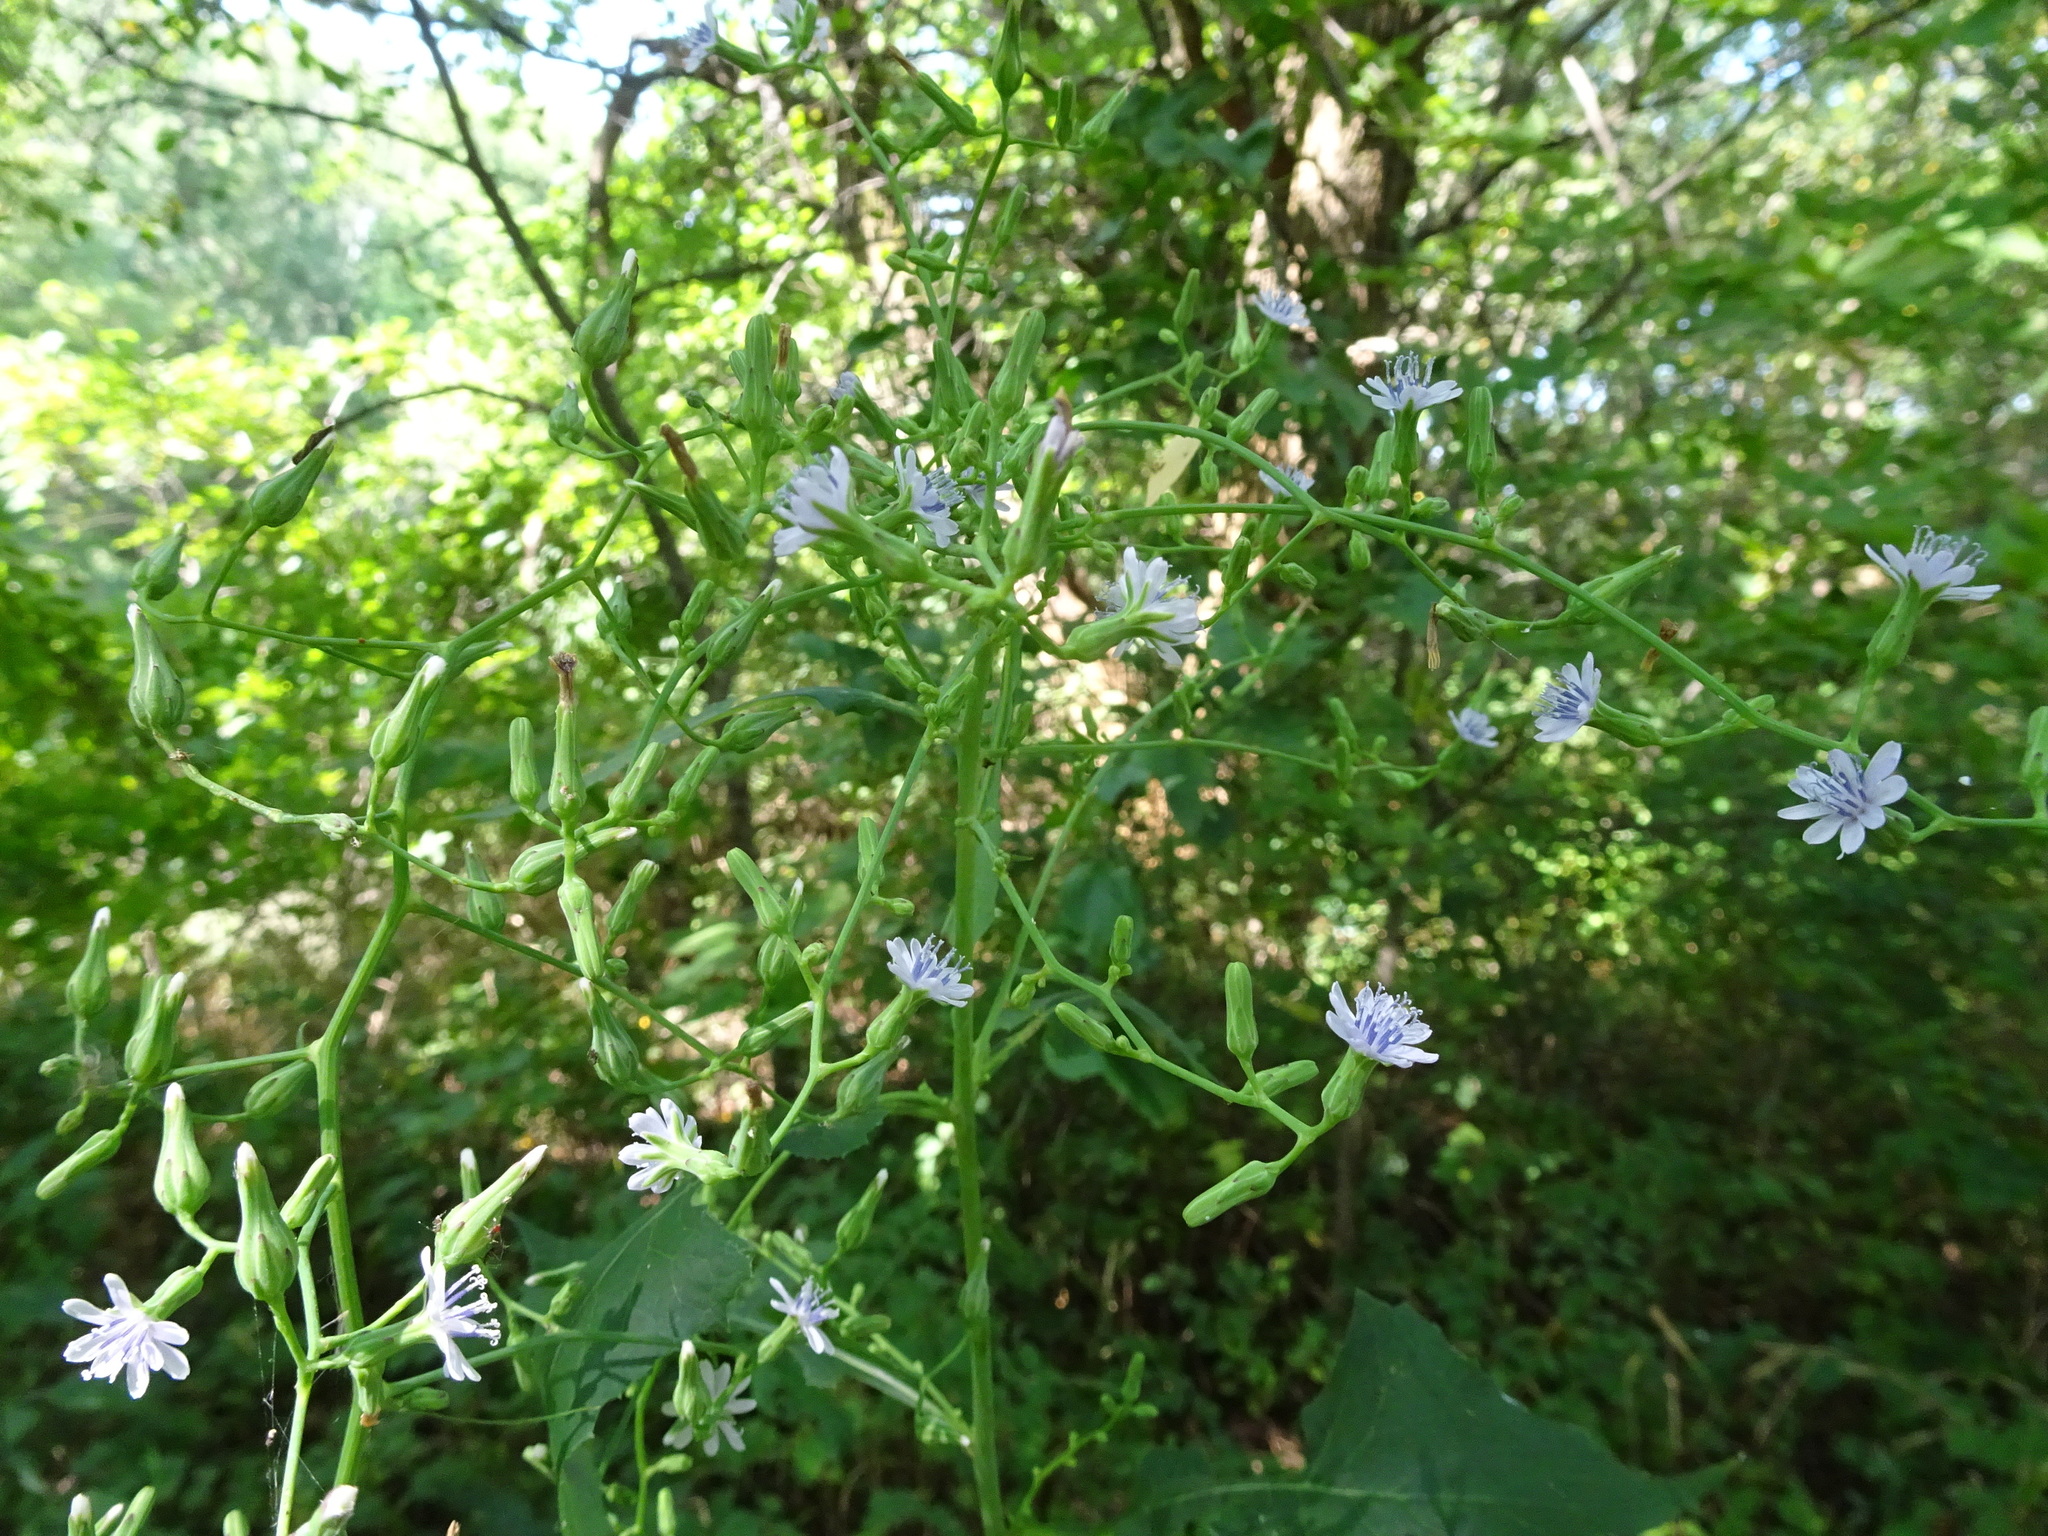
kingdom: Plantae
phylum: Tracheophyta
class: Magnoliopsida
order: Asterales
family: Asteraceae
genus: Lactuca
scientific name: Lactuca floridana
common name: Woodland lettuce
